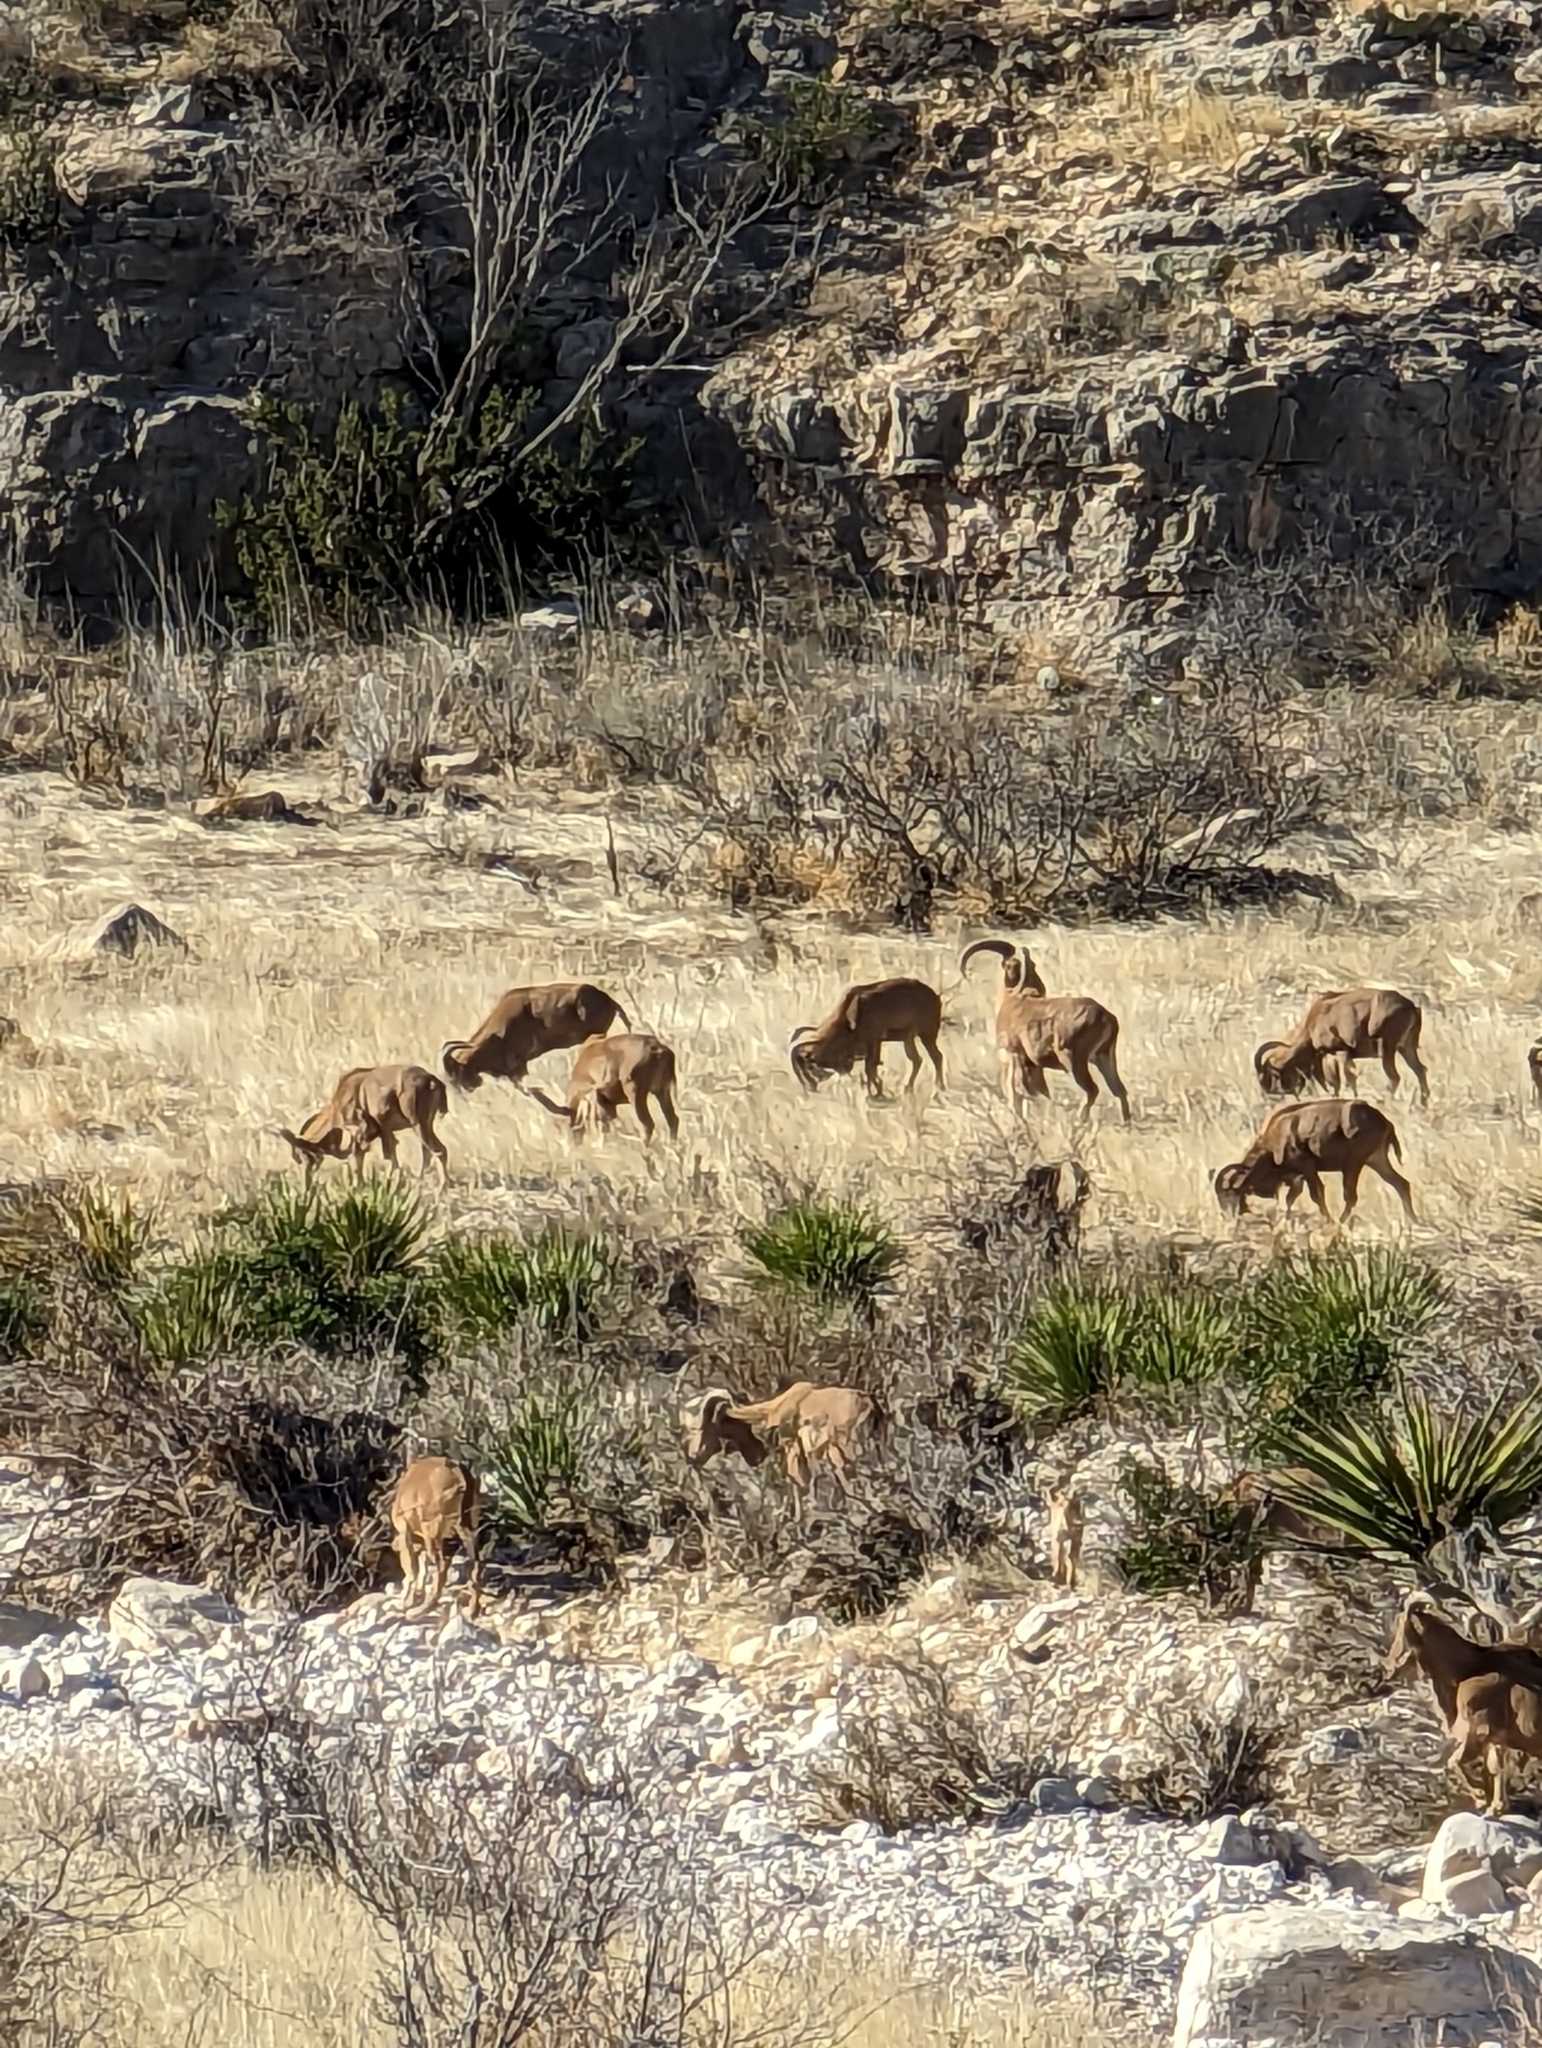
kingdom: Animalia
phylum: Chordata
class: Mammalia
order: Artiodactyla
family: Bovidae
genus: Ammotragus
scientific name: Ammotragus lervia
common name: Barbary sheep
